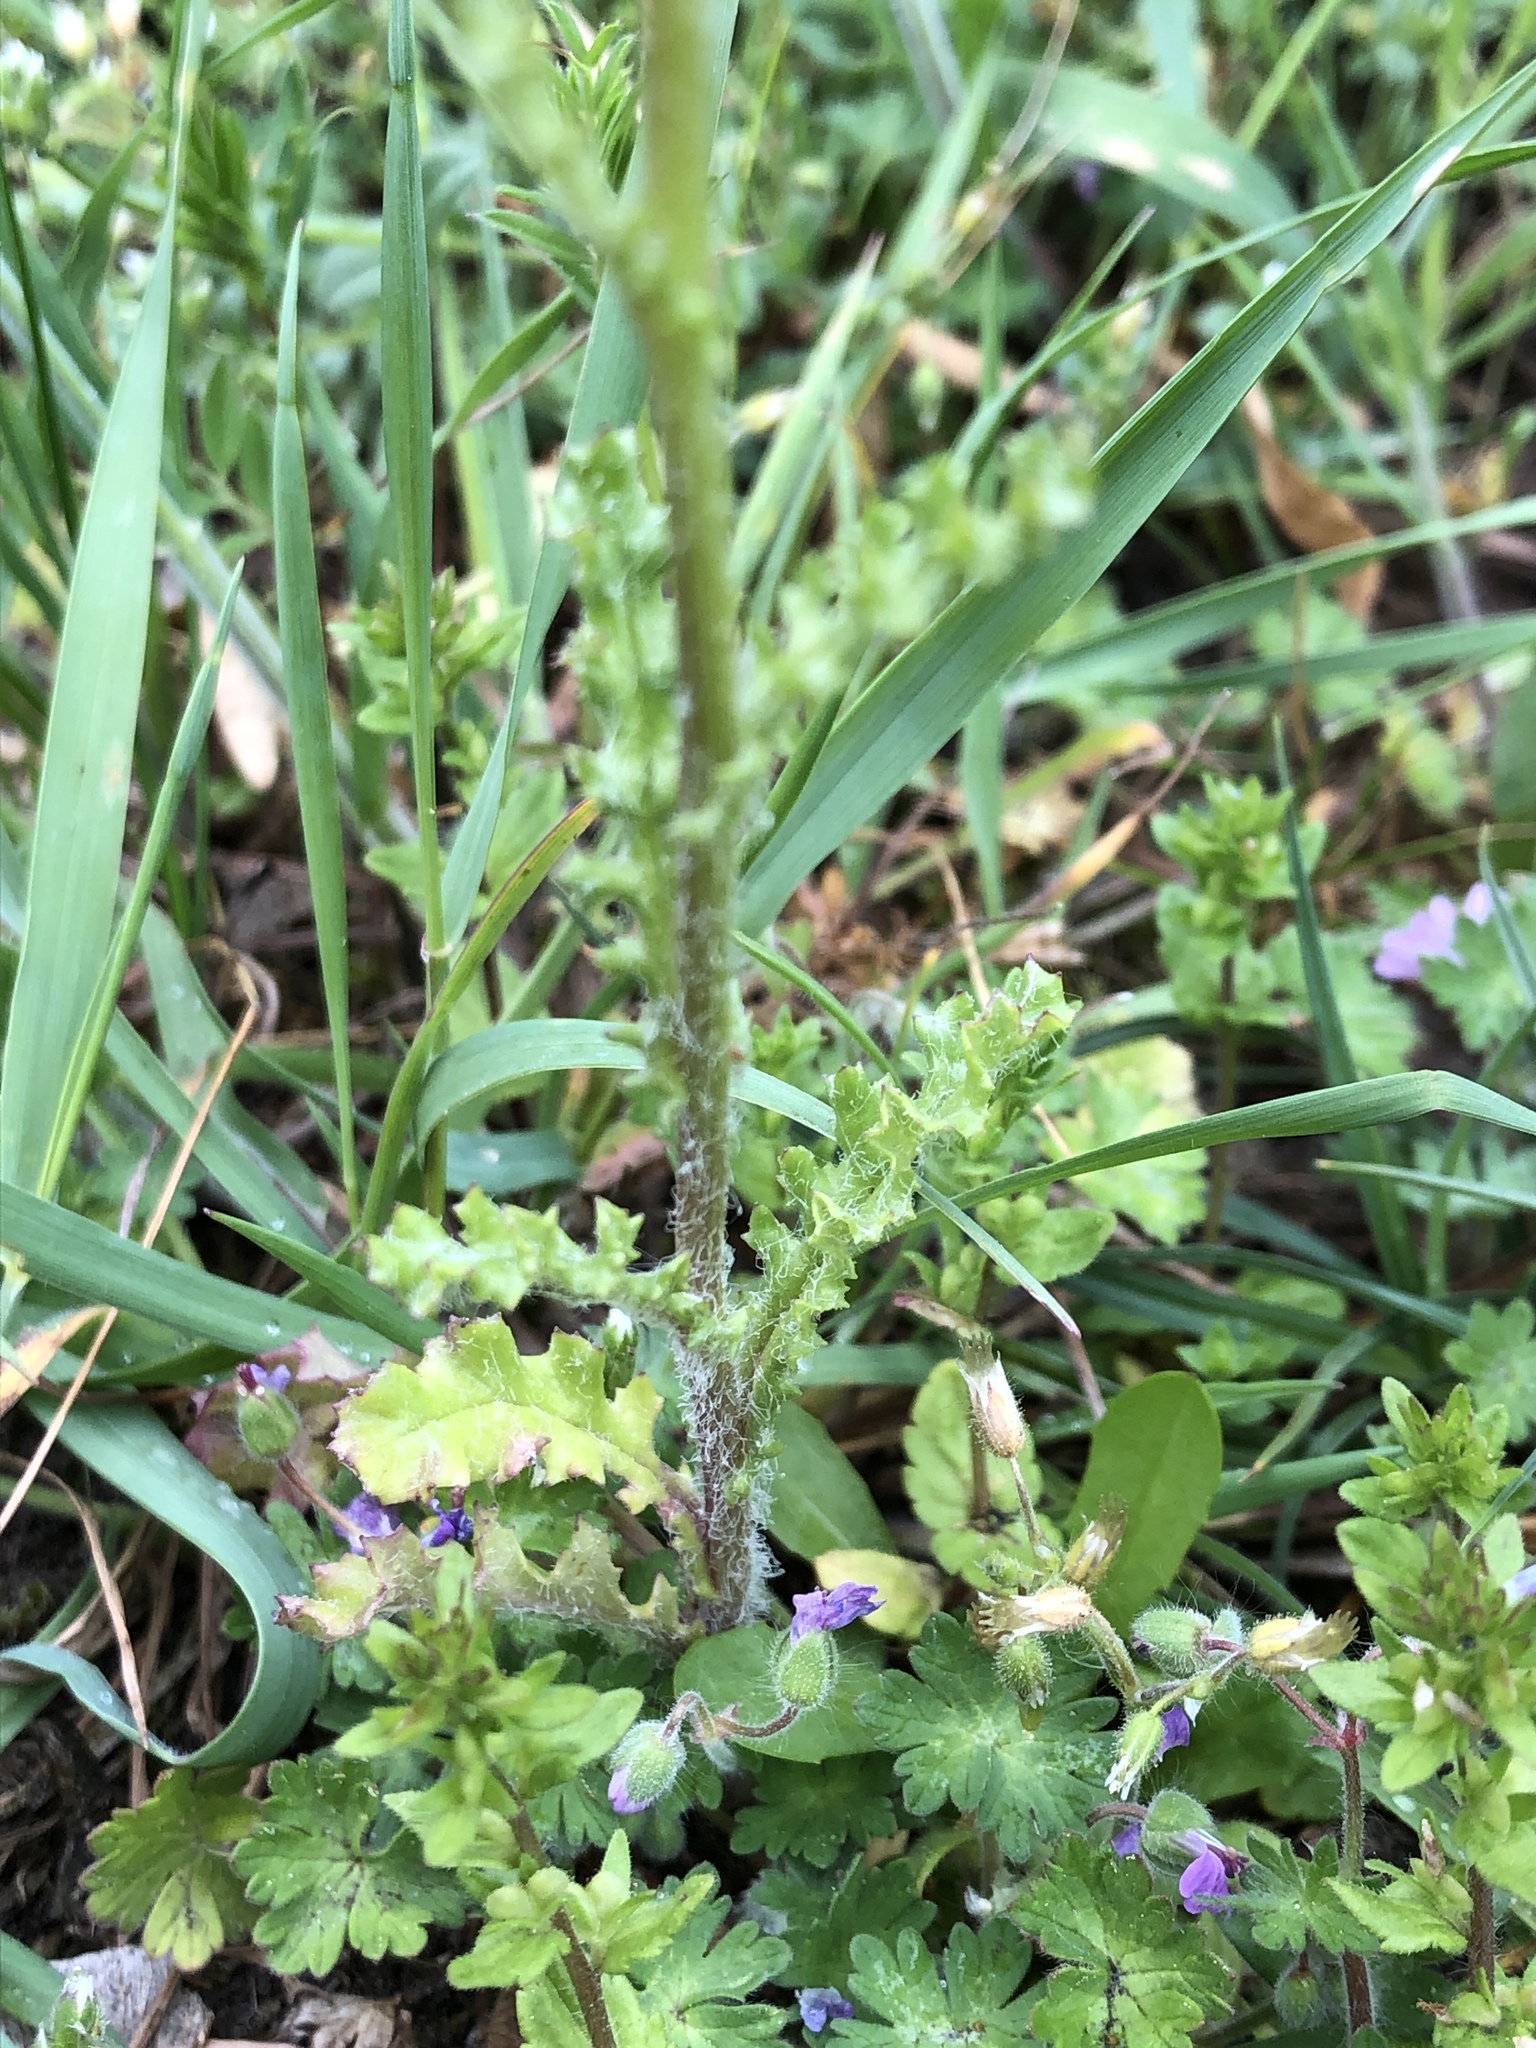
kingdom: Plantae
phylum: Tracheophyta
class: Magnoliopsida
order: Asterales
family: Asteraceae
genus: Senecio
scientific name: Senecio vernalis
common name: Eastern groundsel
